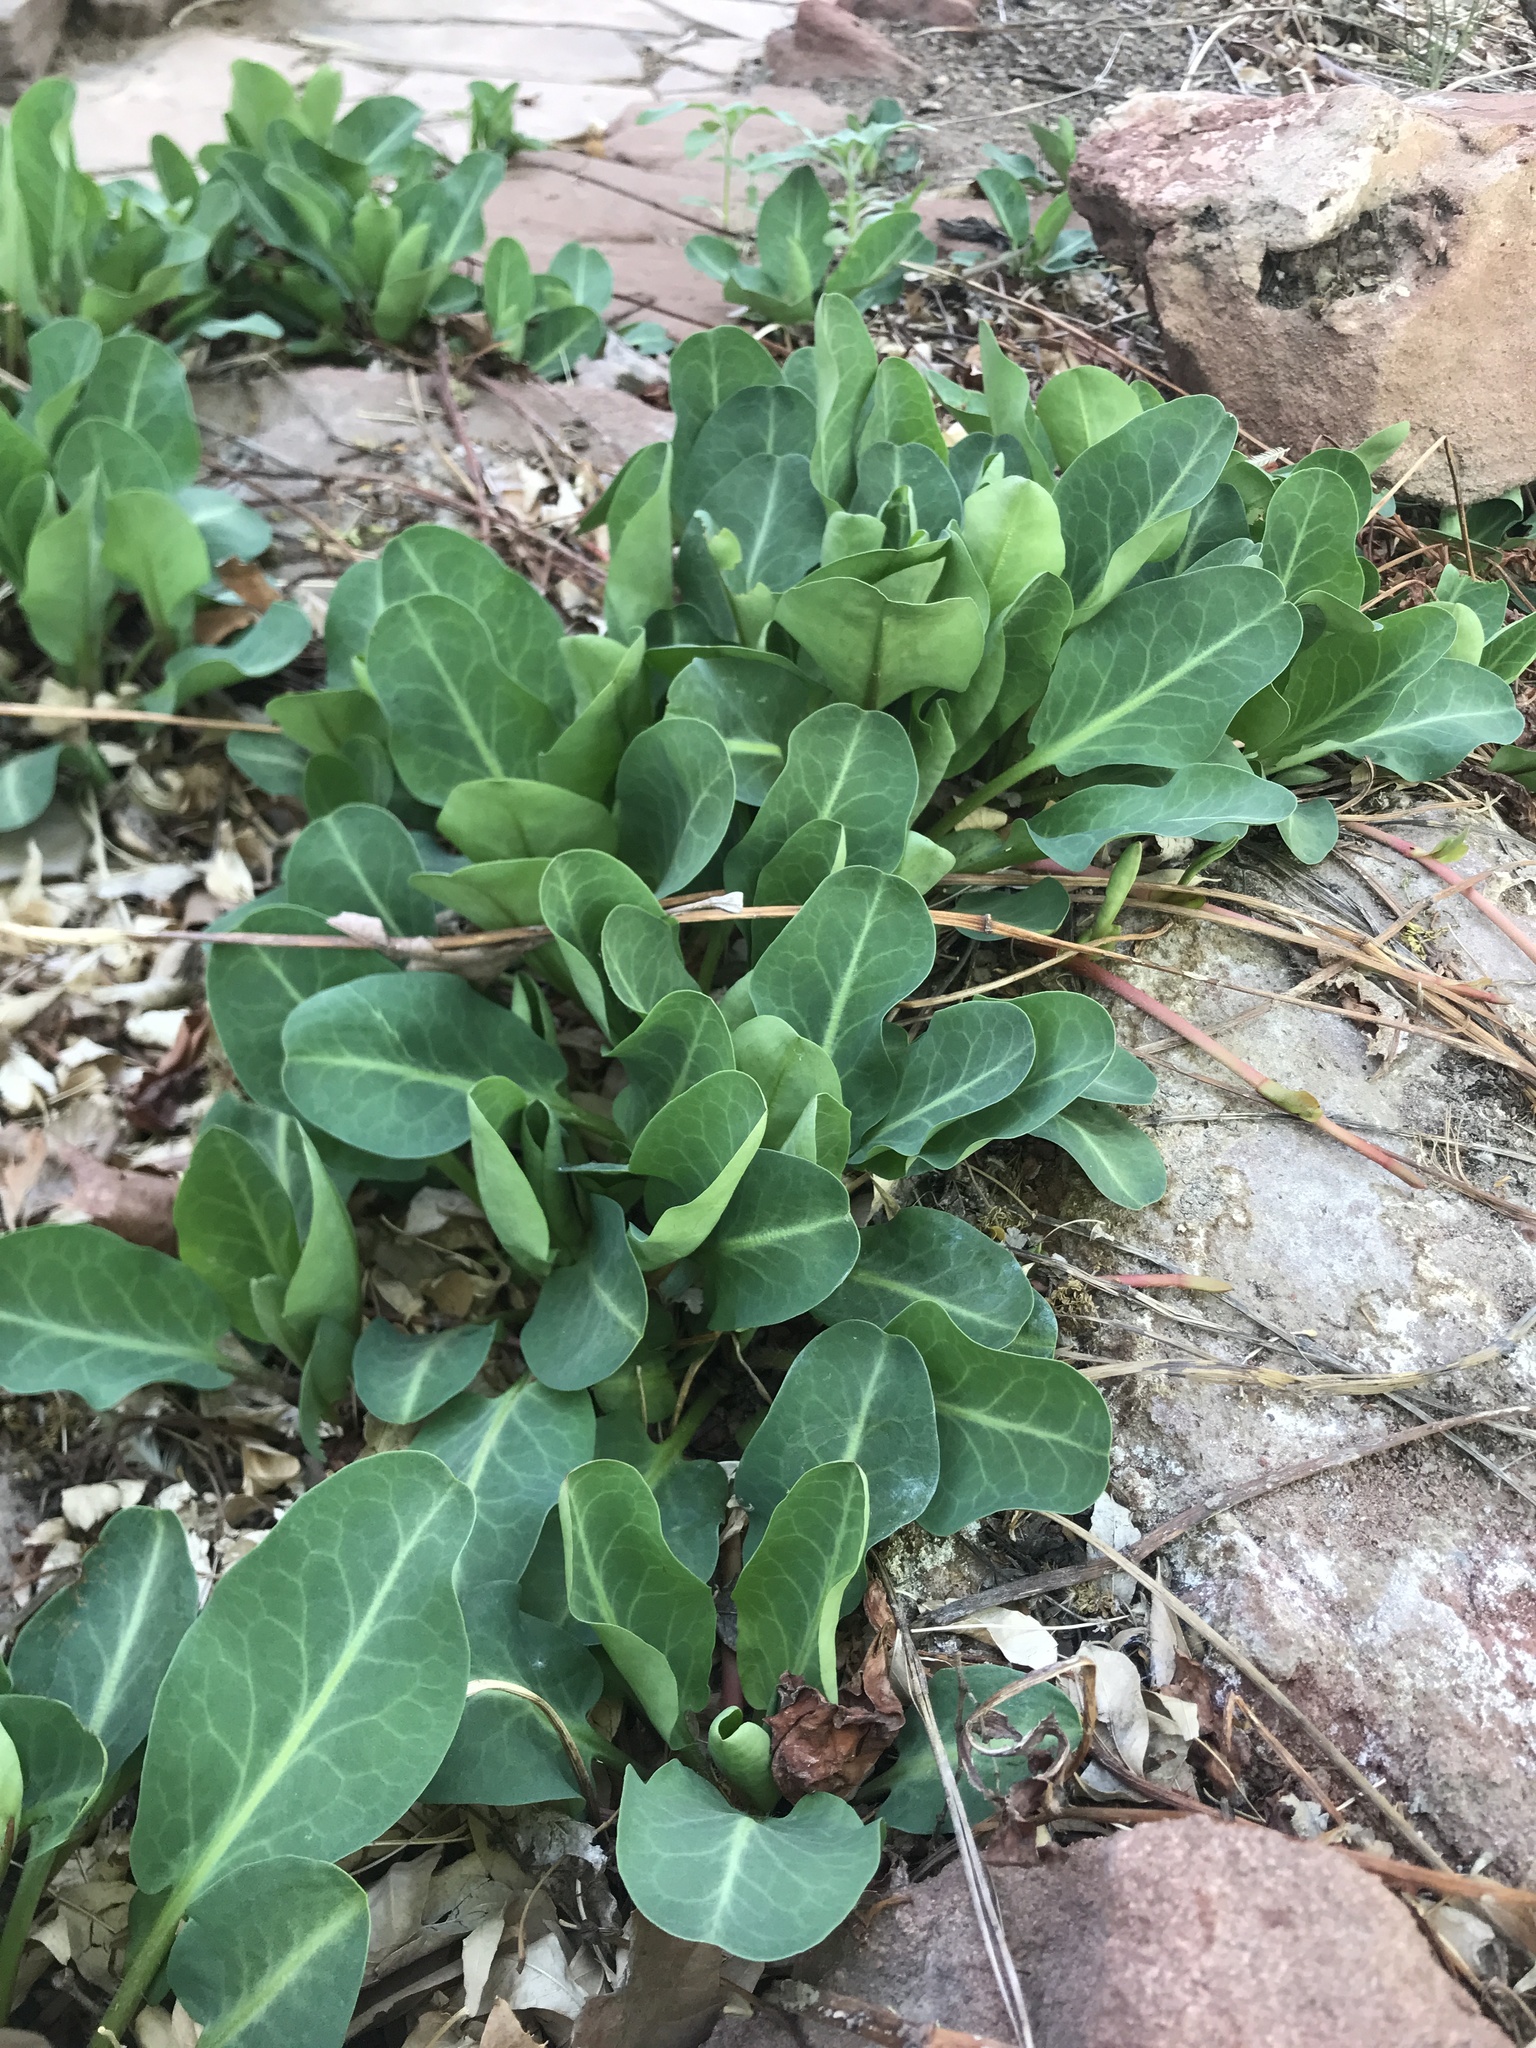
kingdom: Plantae
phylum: Tracheophyta
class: Magnoliopsida
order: Piperales
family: Saururaceae
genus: Anemopsis
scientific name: Anemopsis californica
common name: Apache-beads
